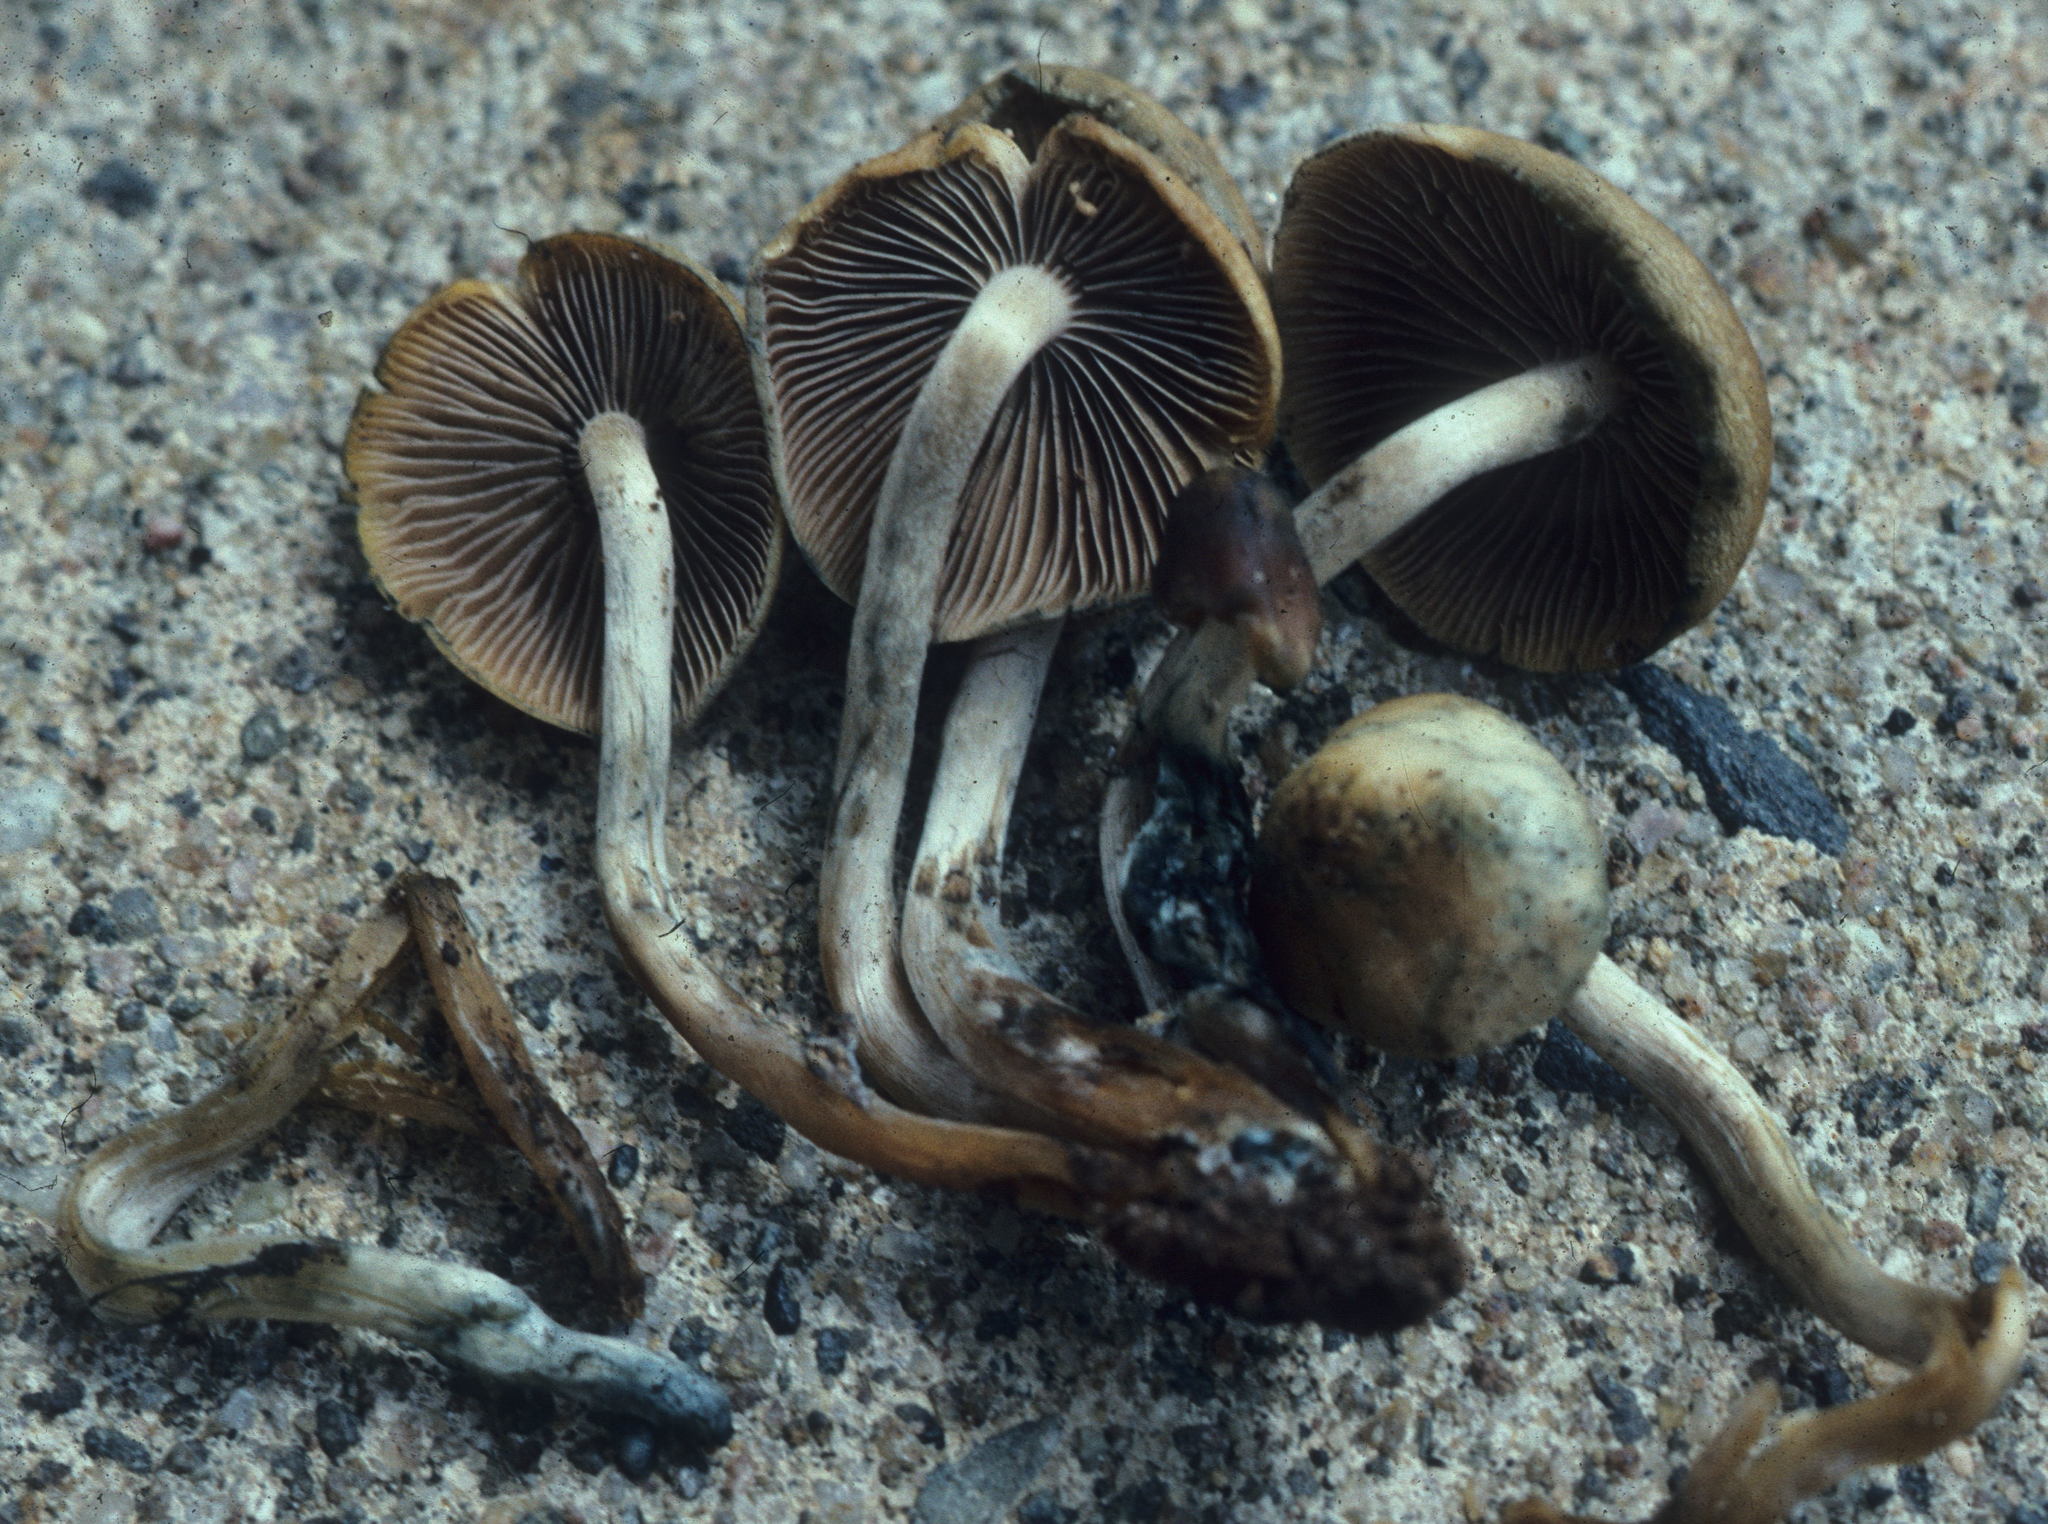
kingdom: Fungi
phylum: Basidiomycota
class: Agaricomycetes
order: Agaricales
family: Hymenogastraceae
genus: Psilocybe
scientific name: Psilocybe caerulipes
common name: Blue-foot
